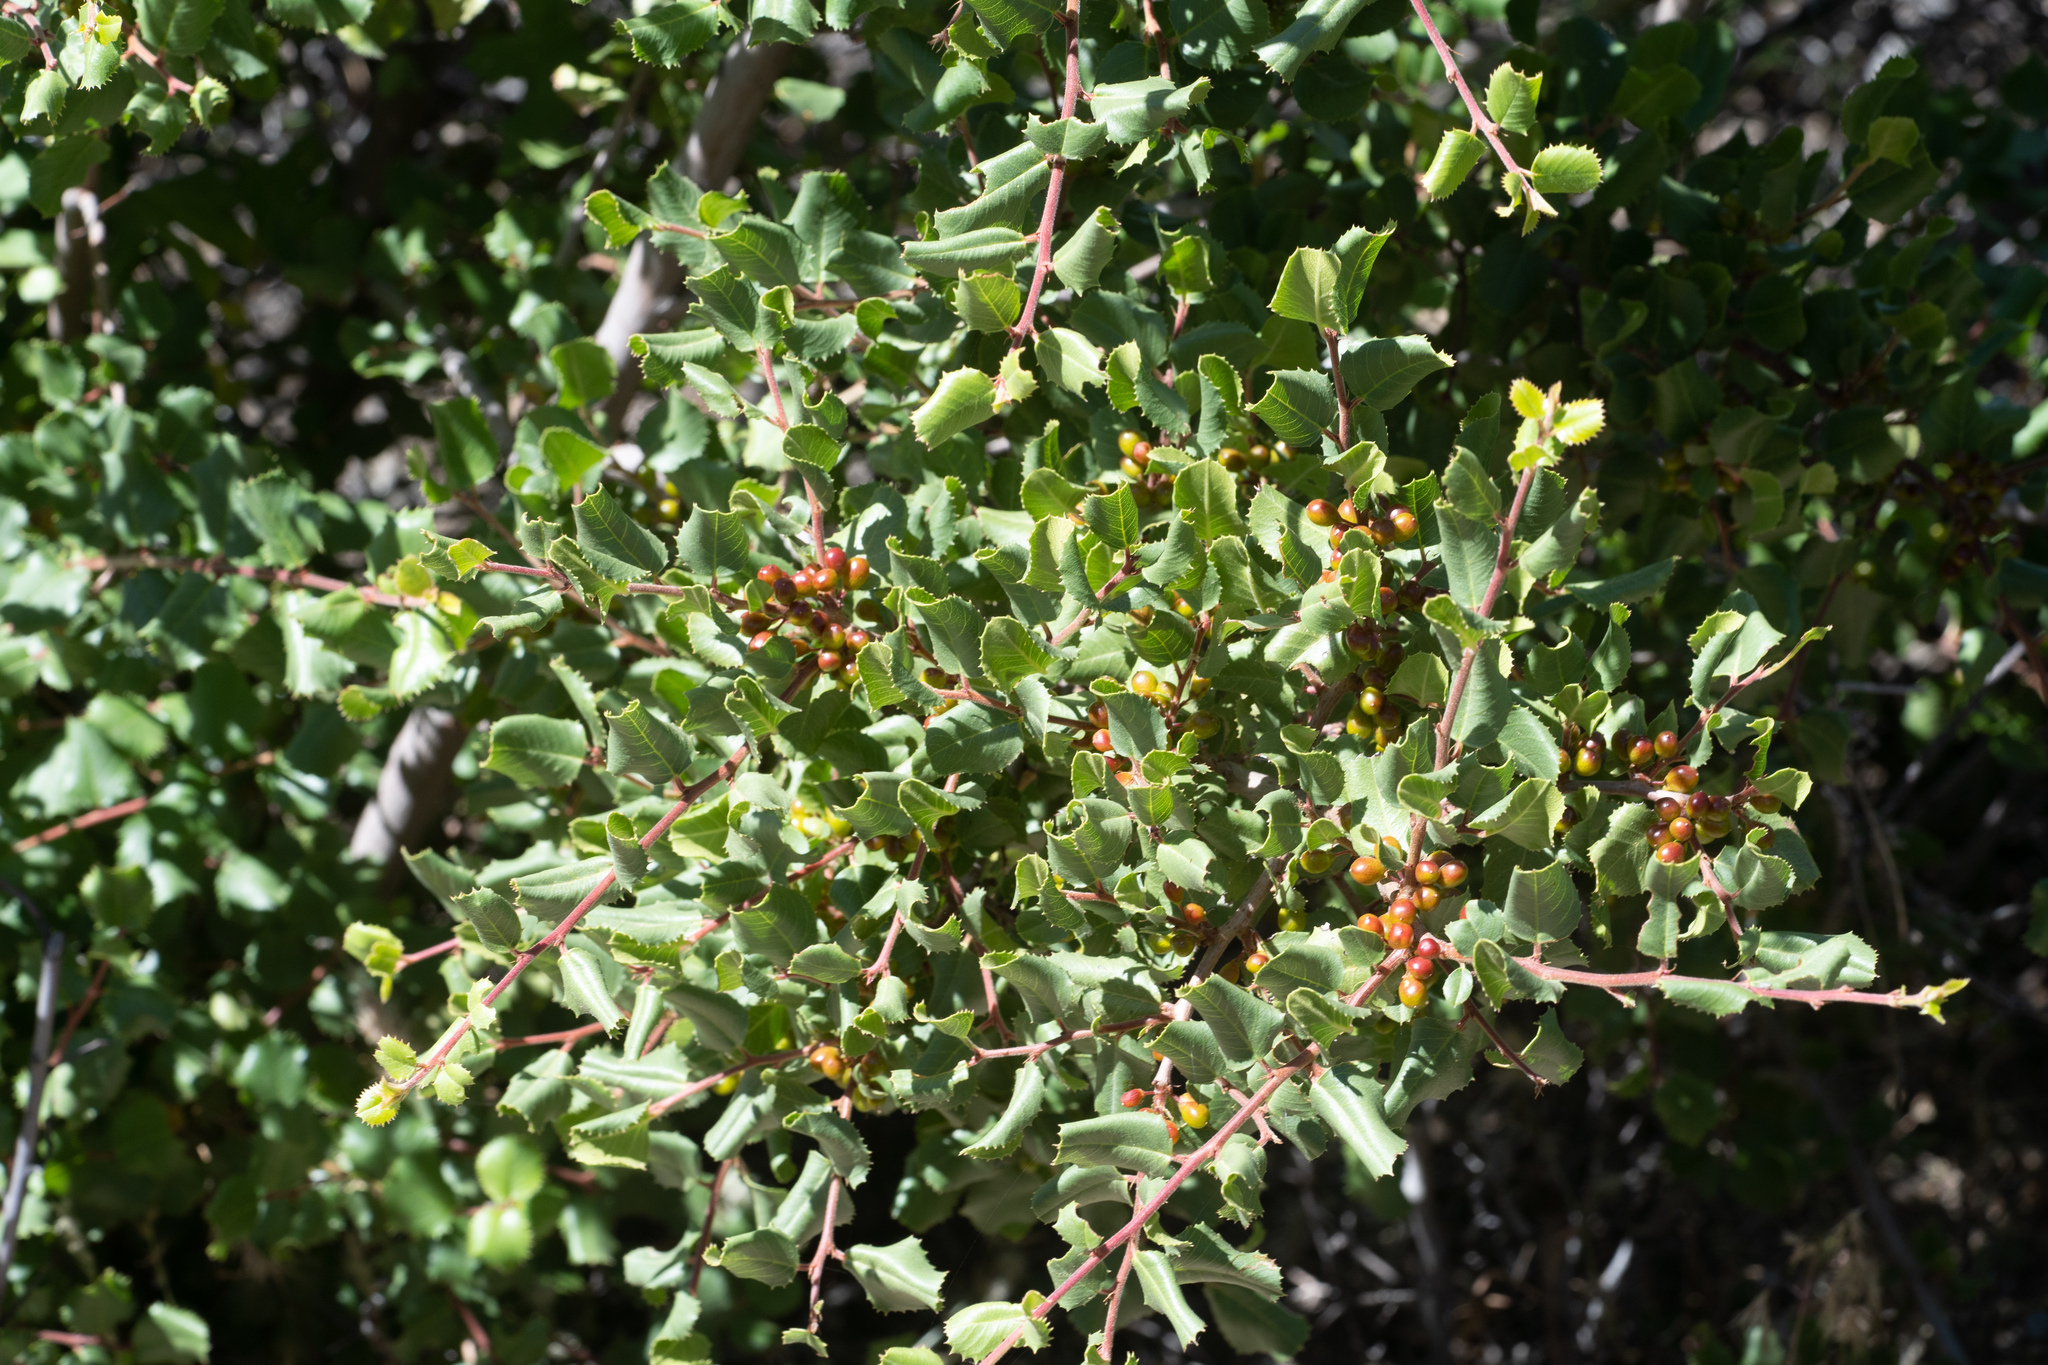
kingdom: Plantae
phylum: Tracheophyta
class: Magnoliopsida
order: Rosales
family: Rhamnaceae
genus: Endotropis
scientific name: Endotropis crocea
